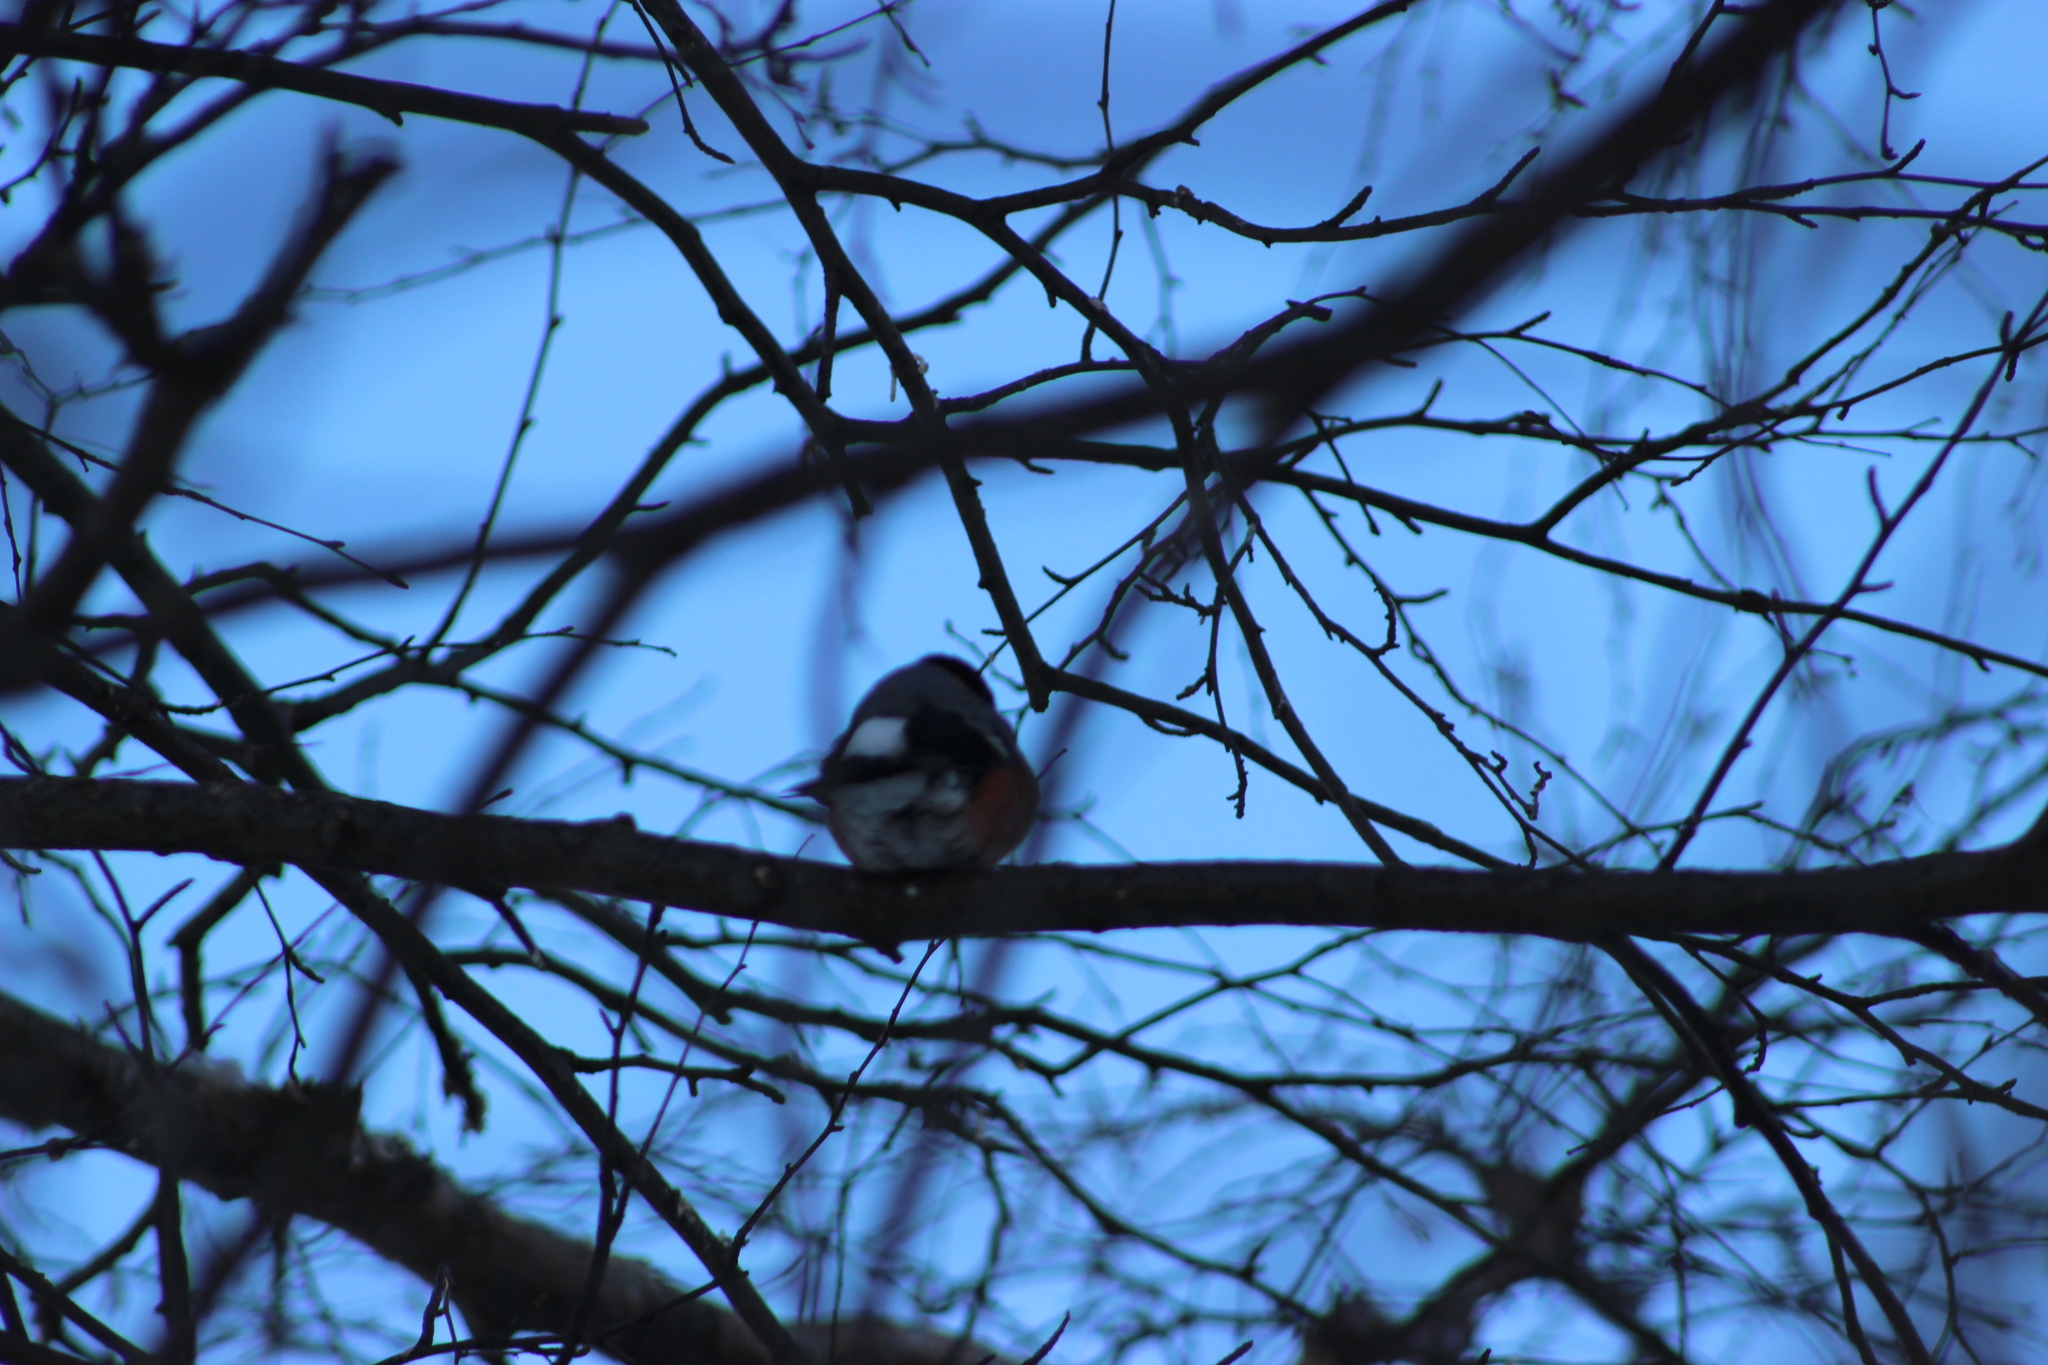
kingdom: Animalia
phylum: Chordata
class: Aves
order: Passeriformes
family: Fringillidae
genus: Pyrrhula
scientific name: Pyrrhula pyrrhula
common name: Eurasian bullfinch
